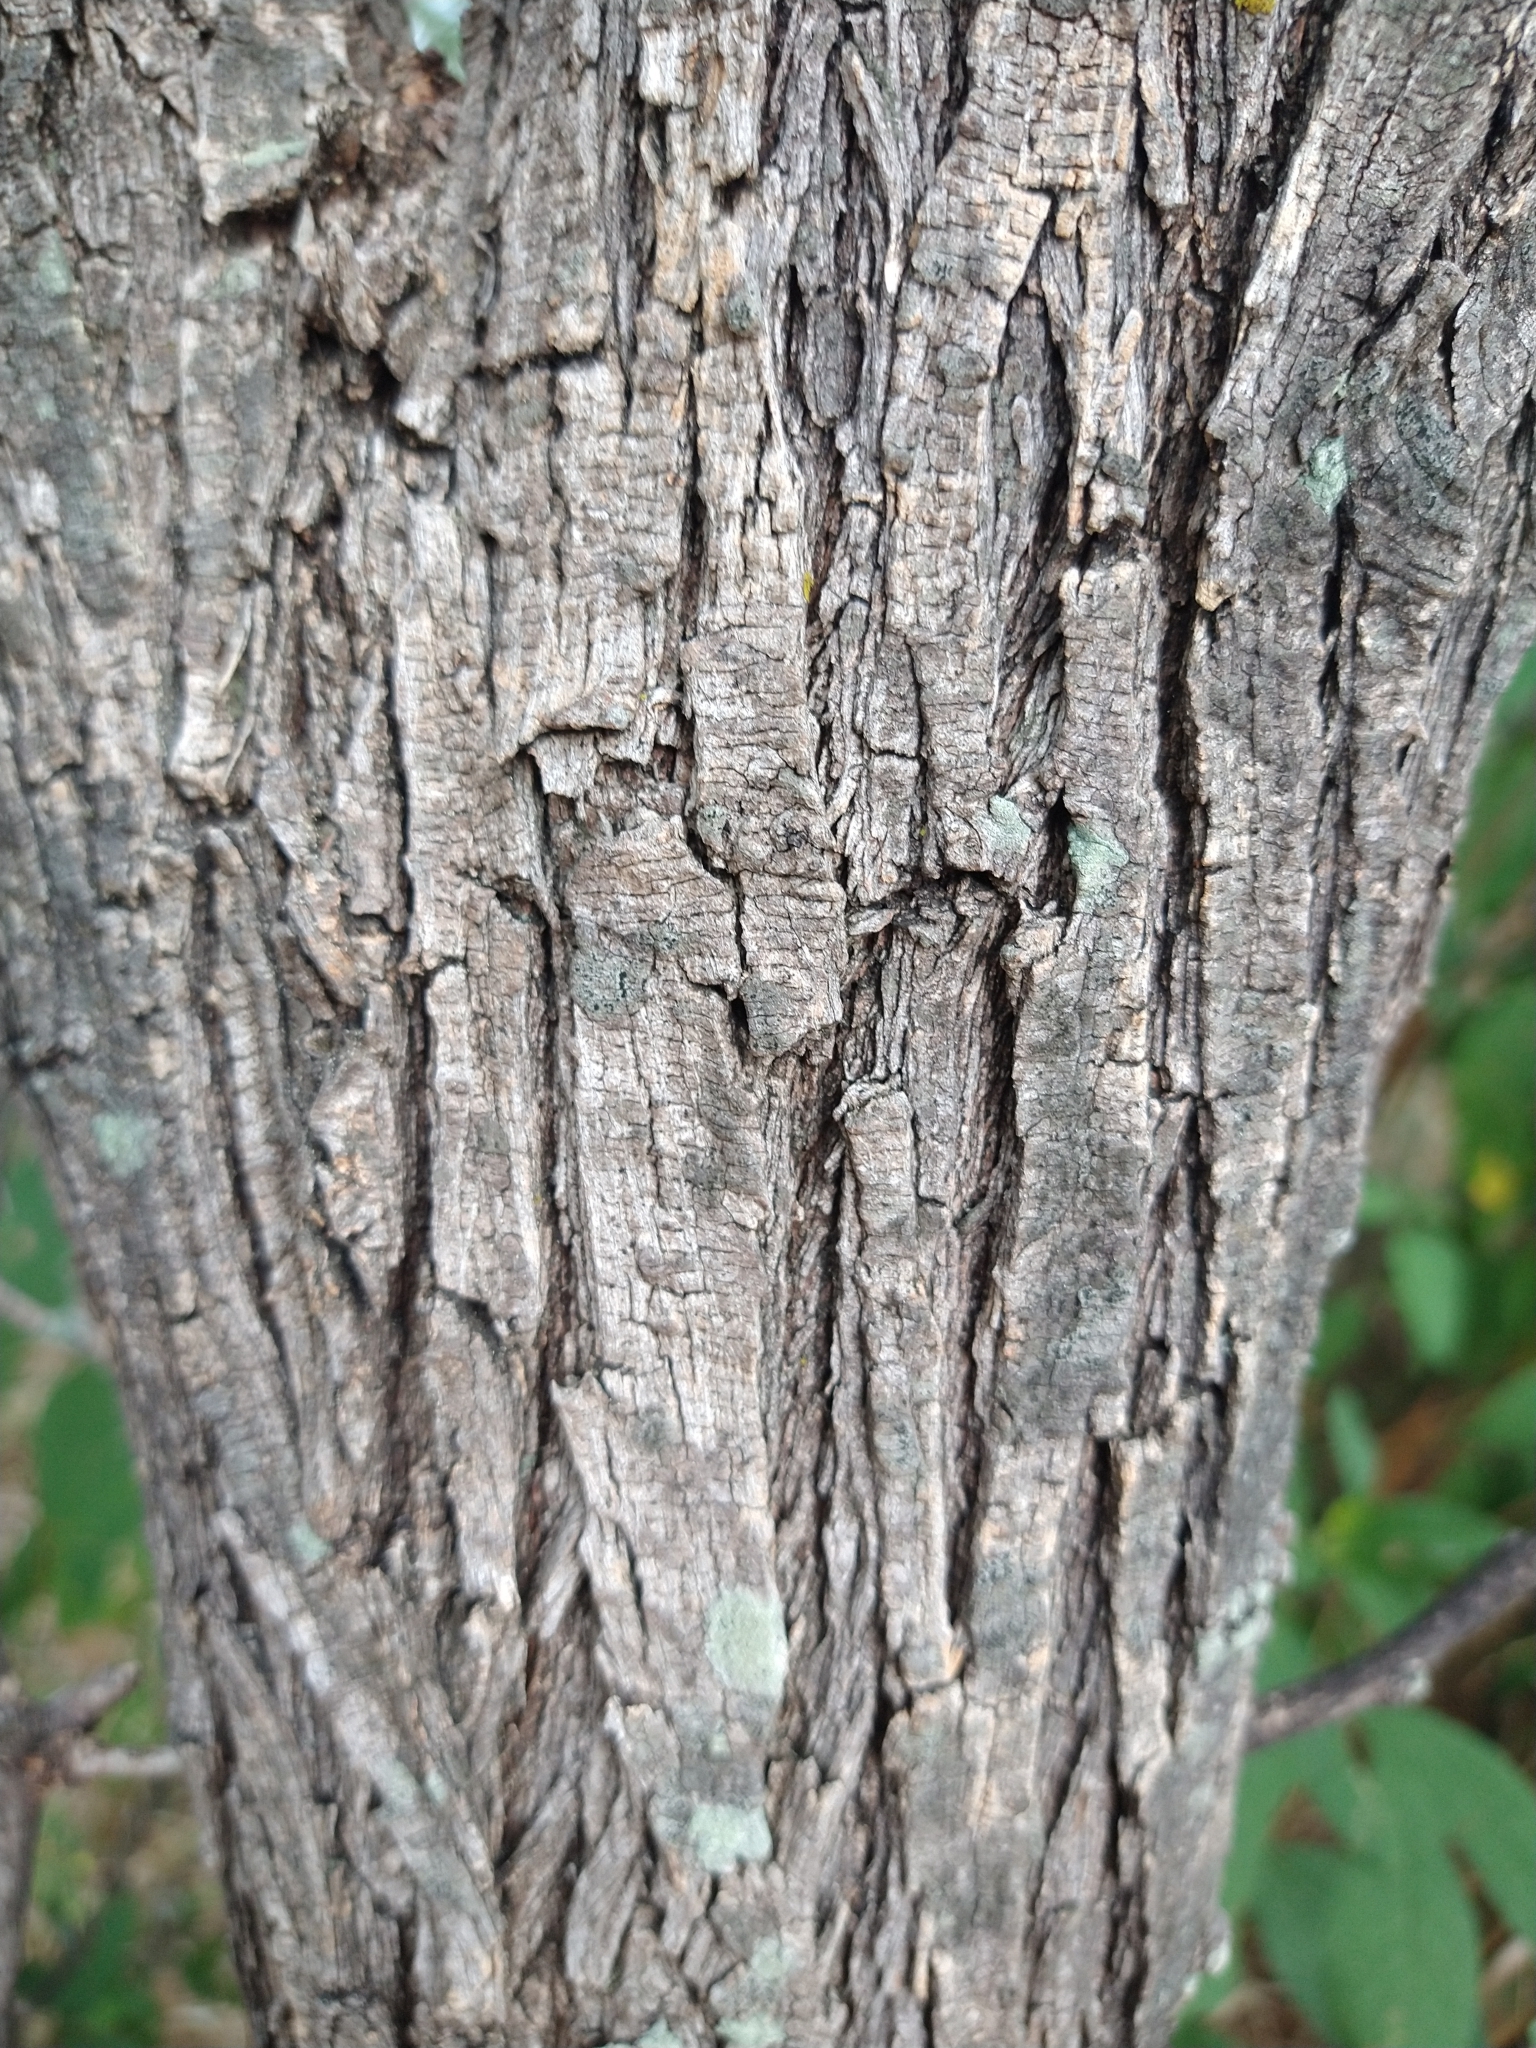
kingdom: Plantae
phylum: Tracheophyta
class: Magnoliopsida
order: Fabales
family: Fabaceae
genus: Prosopis
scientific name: Prosopis glandulosa
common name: Honey mesquite
